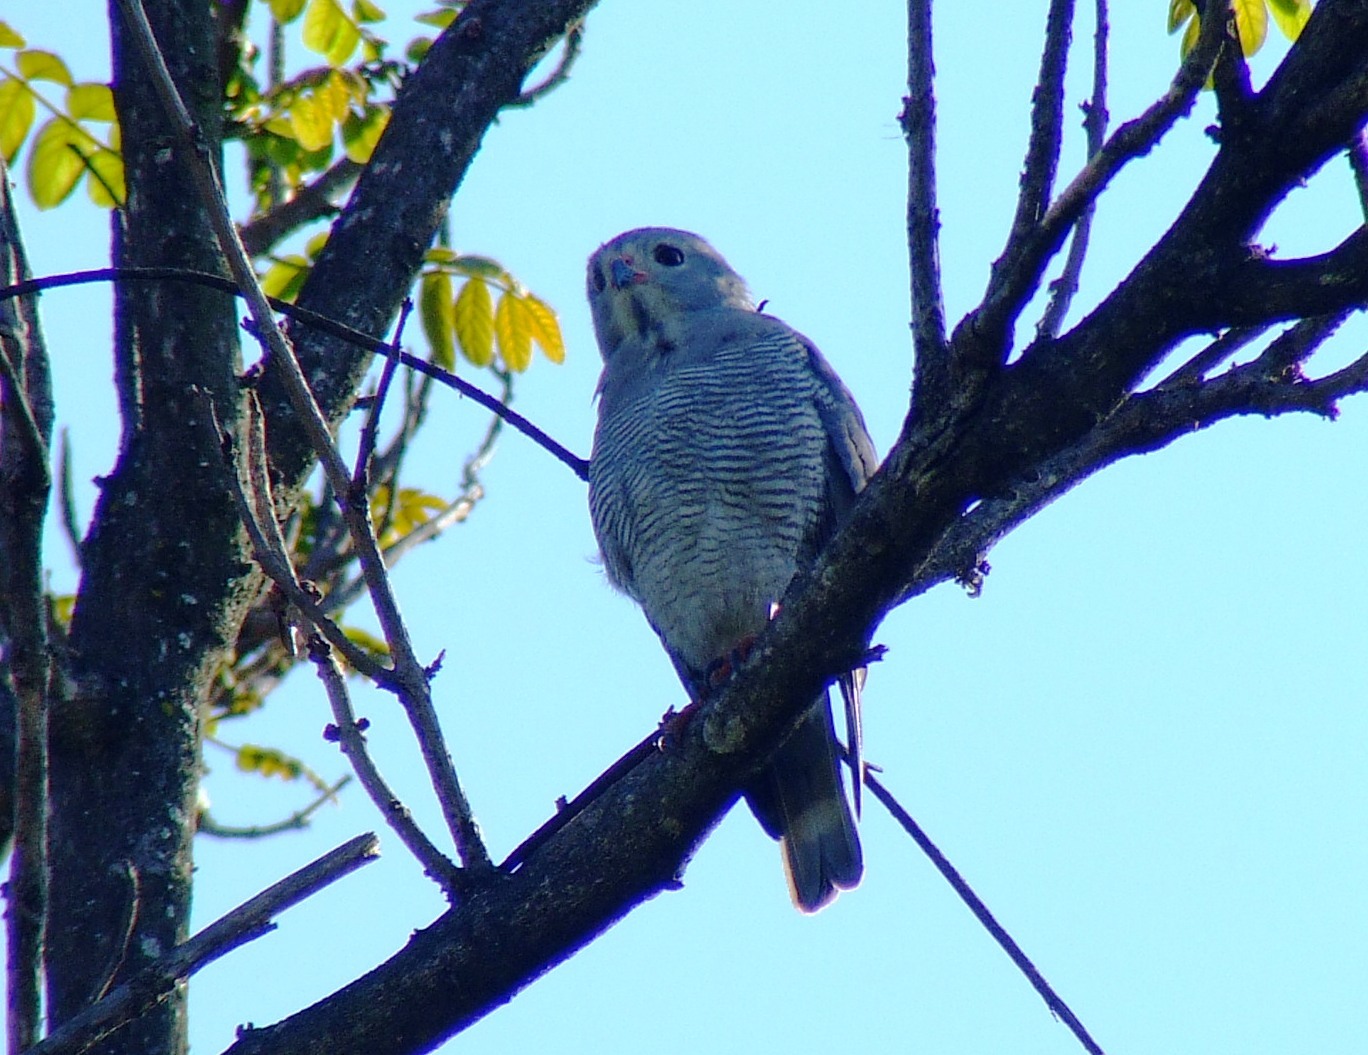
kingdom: Animalia
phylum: Chordata
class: Aves
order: Accipitriformes
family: Accipitridae
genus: Kaupifalco
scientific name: Kaupifalco monogrammicus
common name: Lizard buzzard
